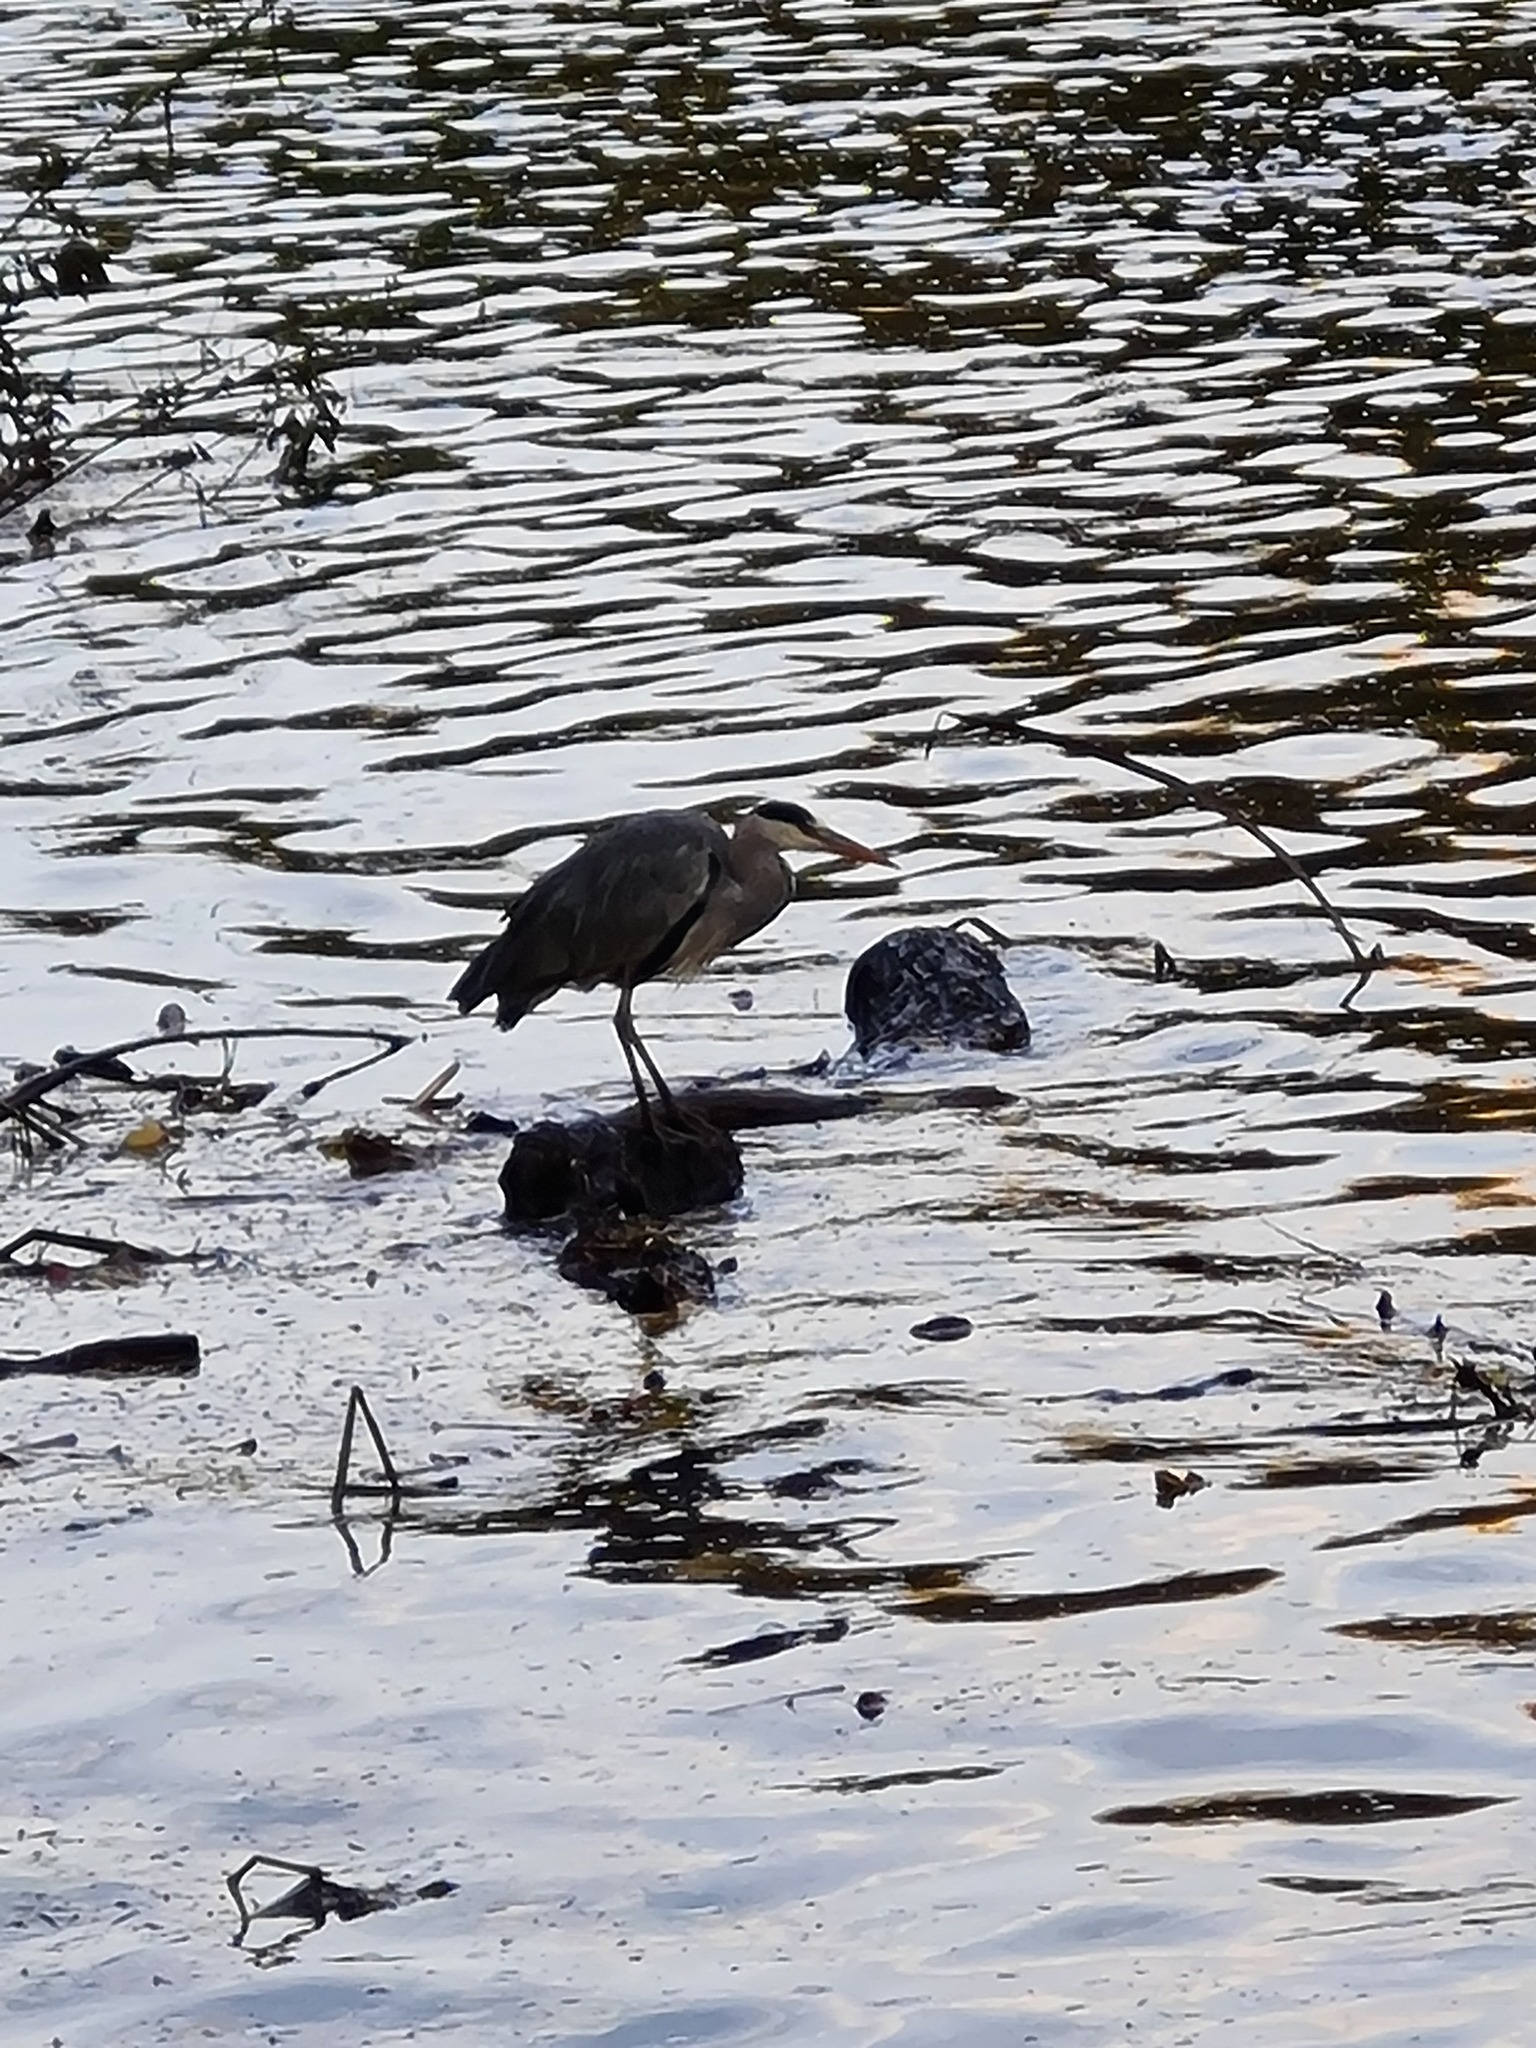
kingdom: Animalia
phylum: Chordata
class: Aves
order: Pelecaniformes
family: Ardeidae
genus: Ardea
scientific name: Ardea cinerea
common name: Grey heron
